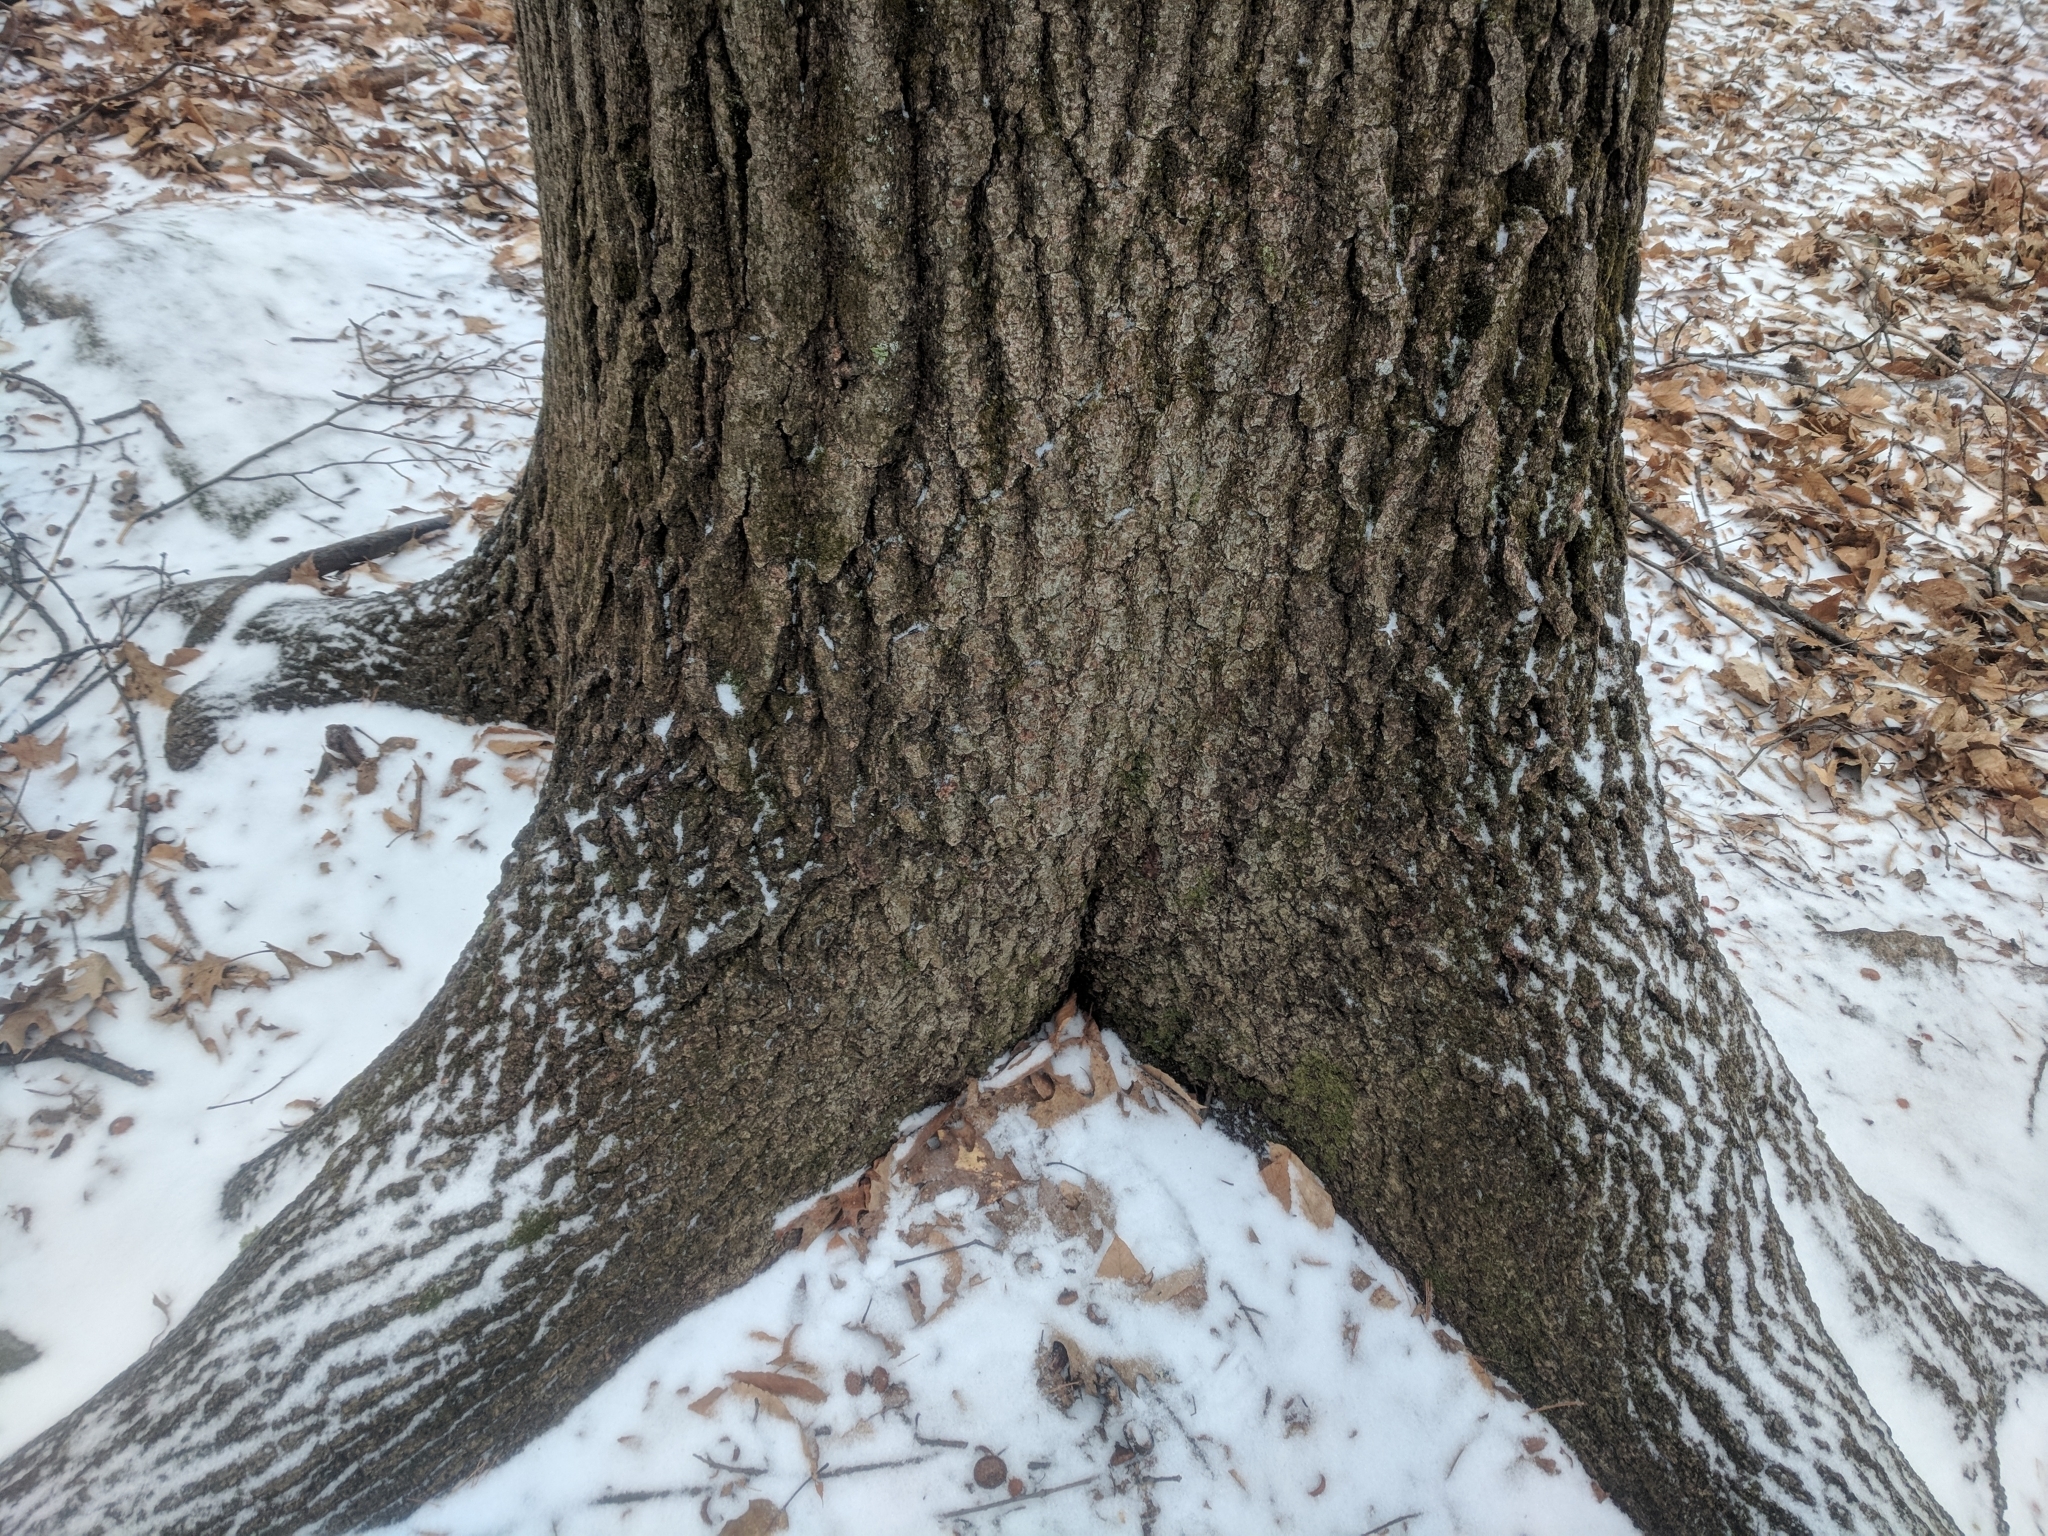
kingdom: Plantae
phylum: Tracheophyta
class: Magnoliopsida
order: Fagales
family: Fagaceae
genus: Quercus
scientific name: Quercus rubra
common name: Red oak
